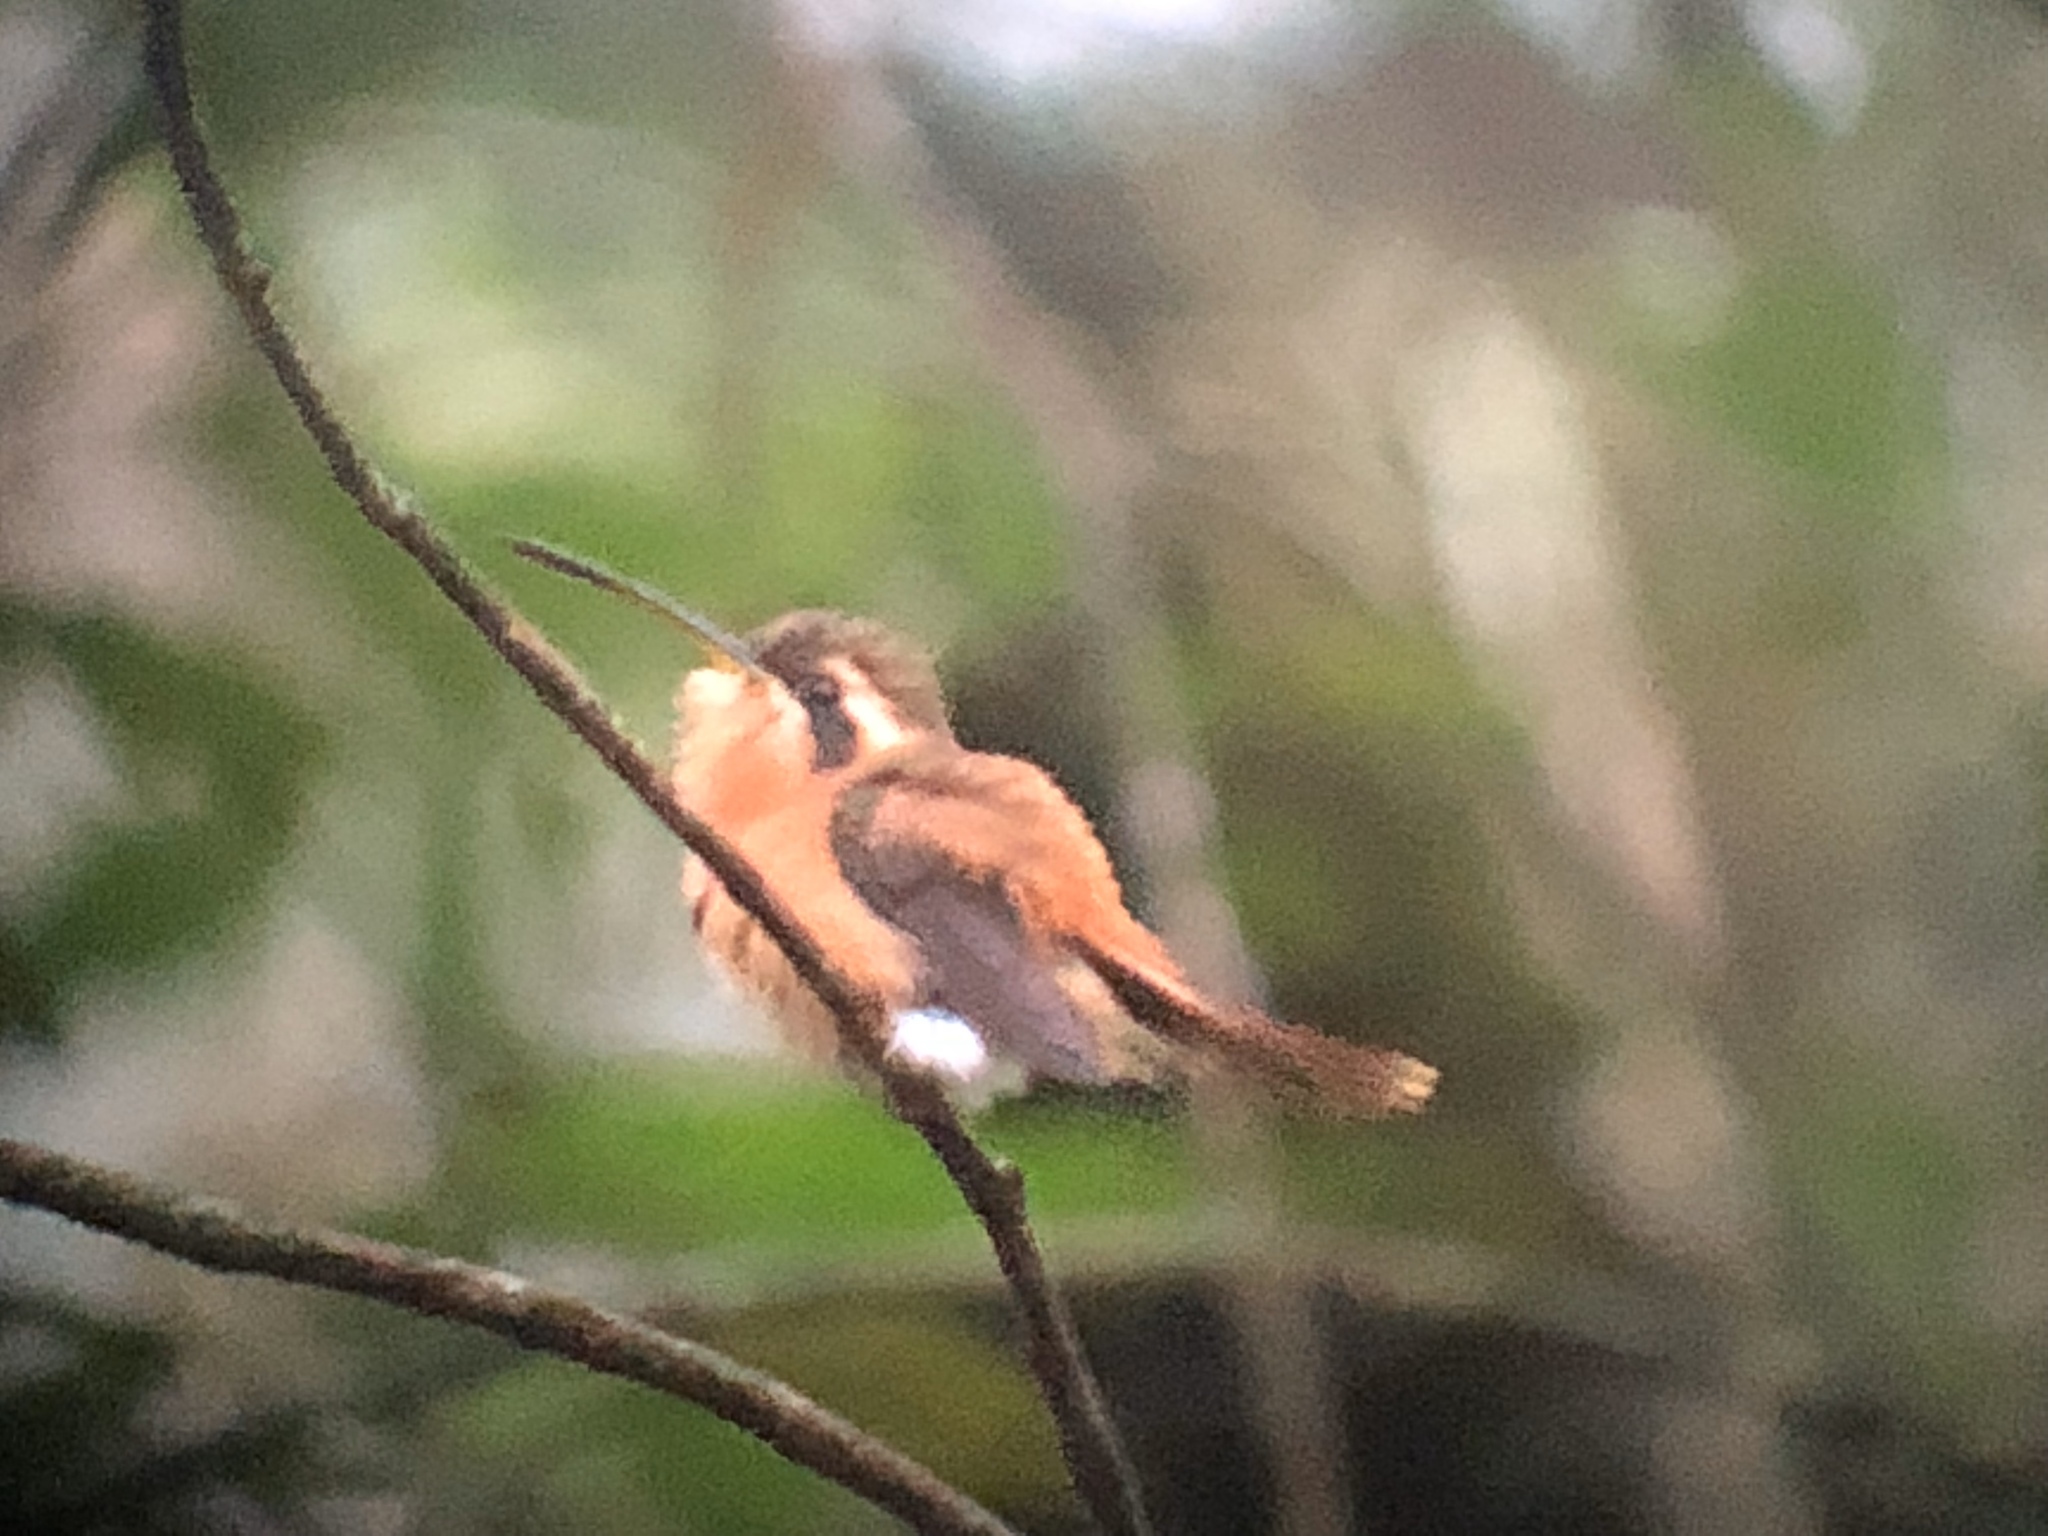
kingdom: Animalia
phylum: Chordata
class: Aves
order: Apodiformes
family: Trochilidae
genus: Phaethornis
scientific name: Phaethornis ruber
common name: Reddish hermit
